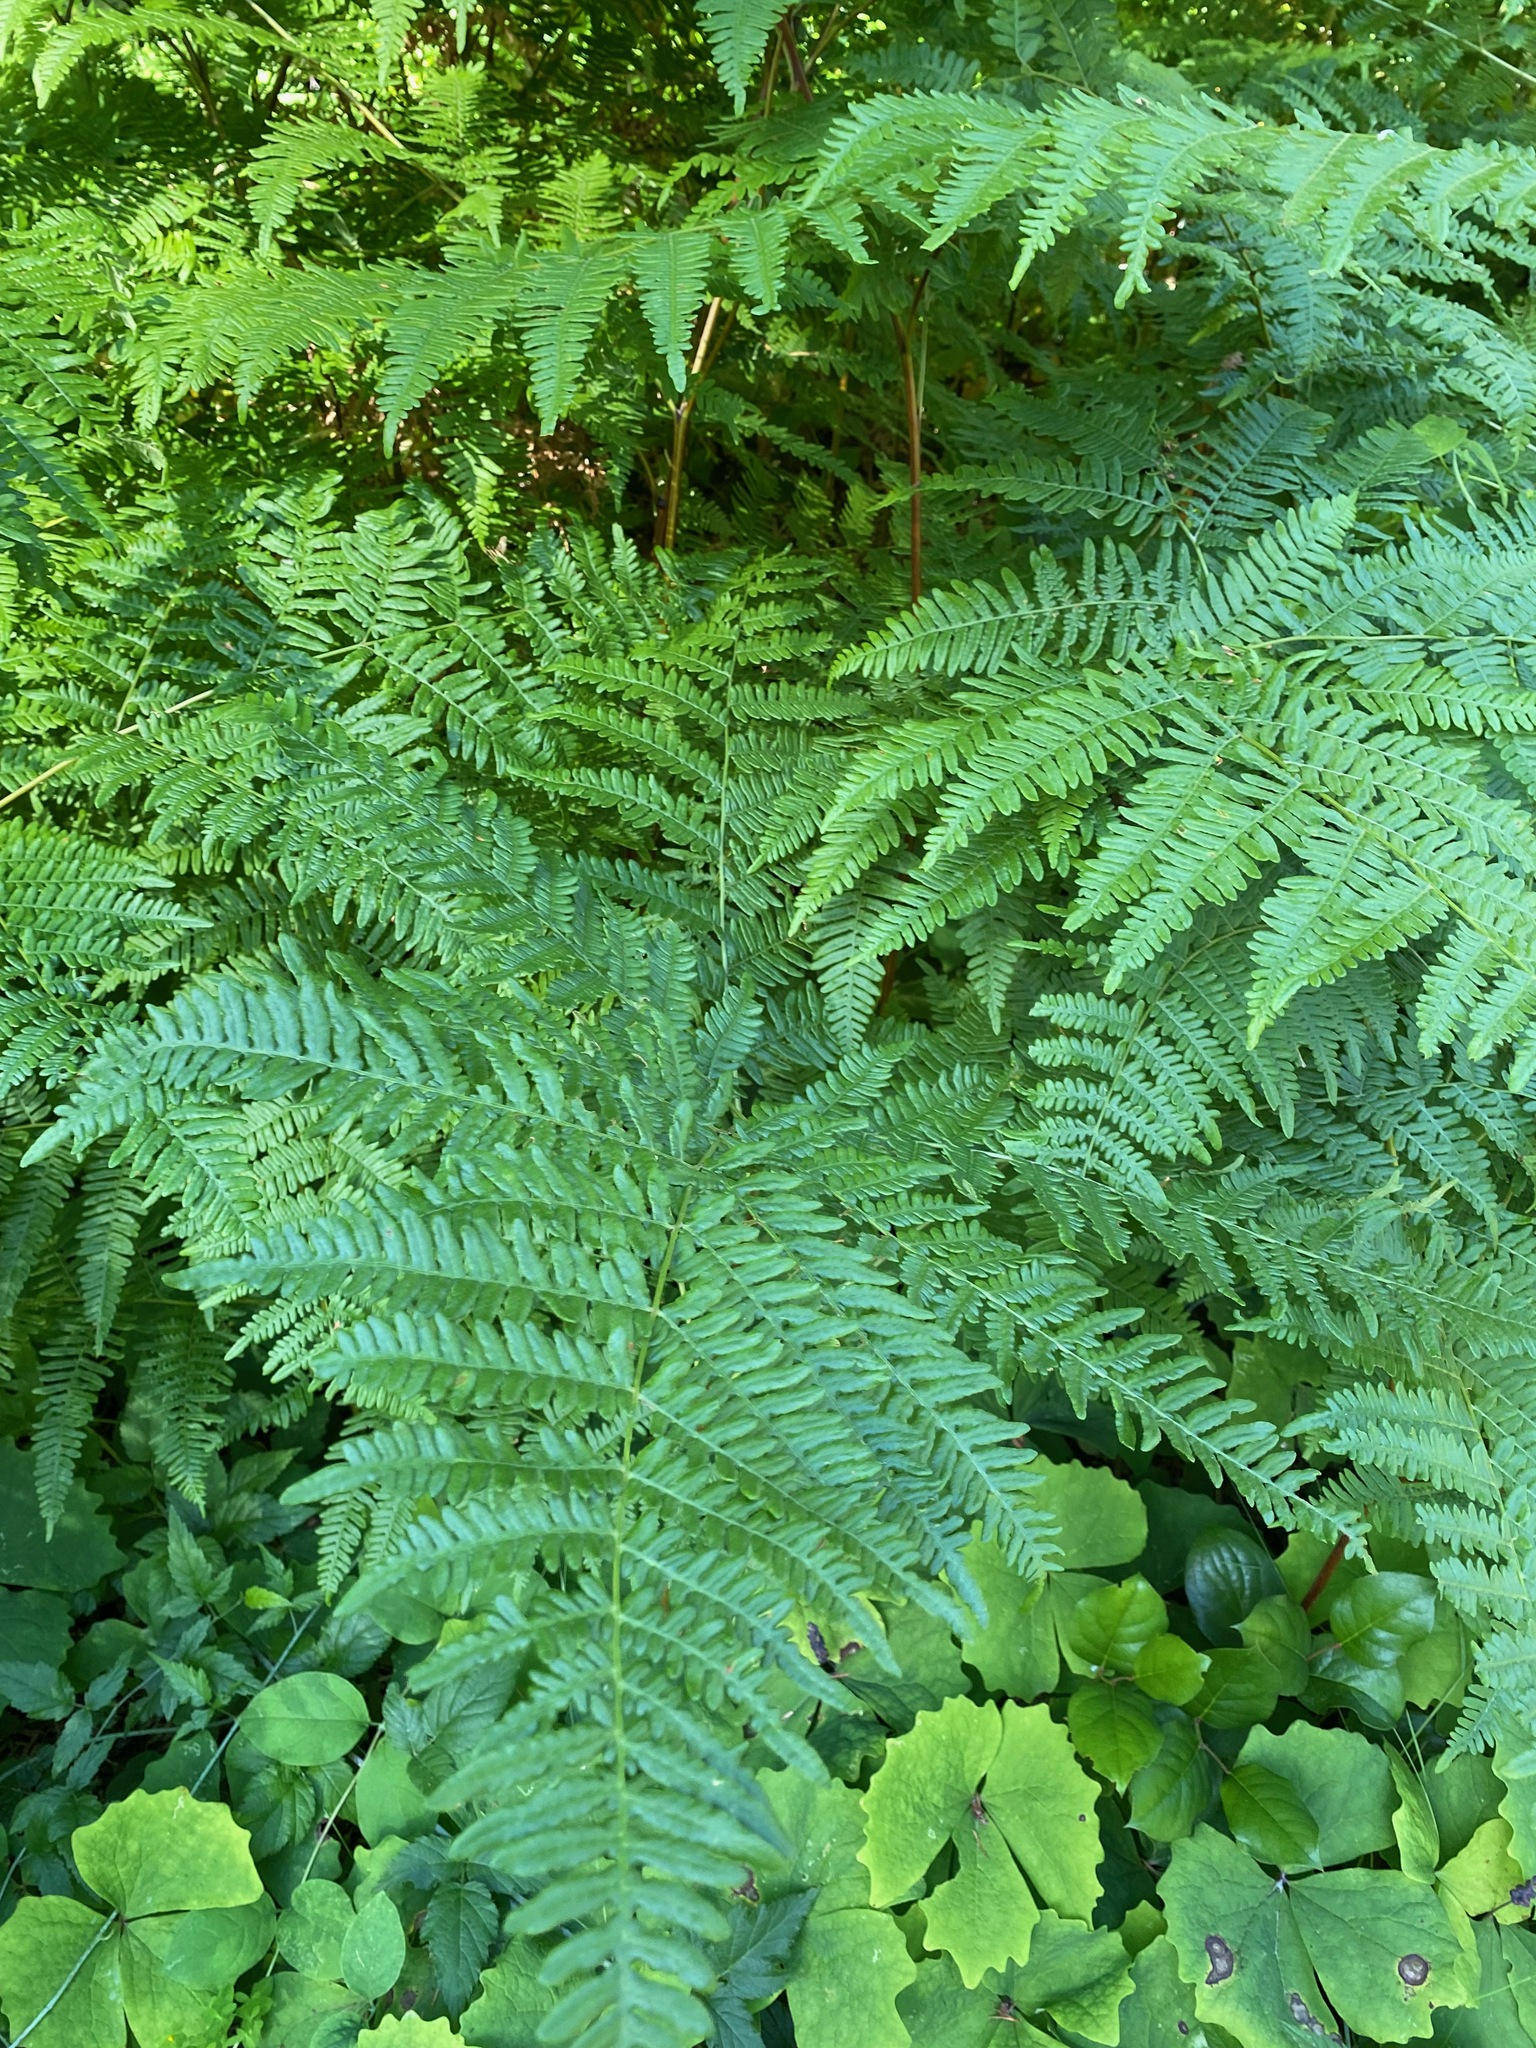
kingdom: Plantae
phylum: Tracheophyta
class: Polypodiopsida
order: Polypodiales
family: Dennstaedtiaceae
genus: Pteridium
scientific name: Pteridium aquilinum
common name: Bracken
